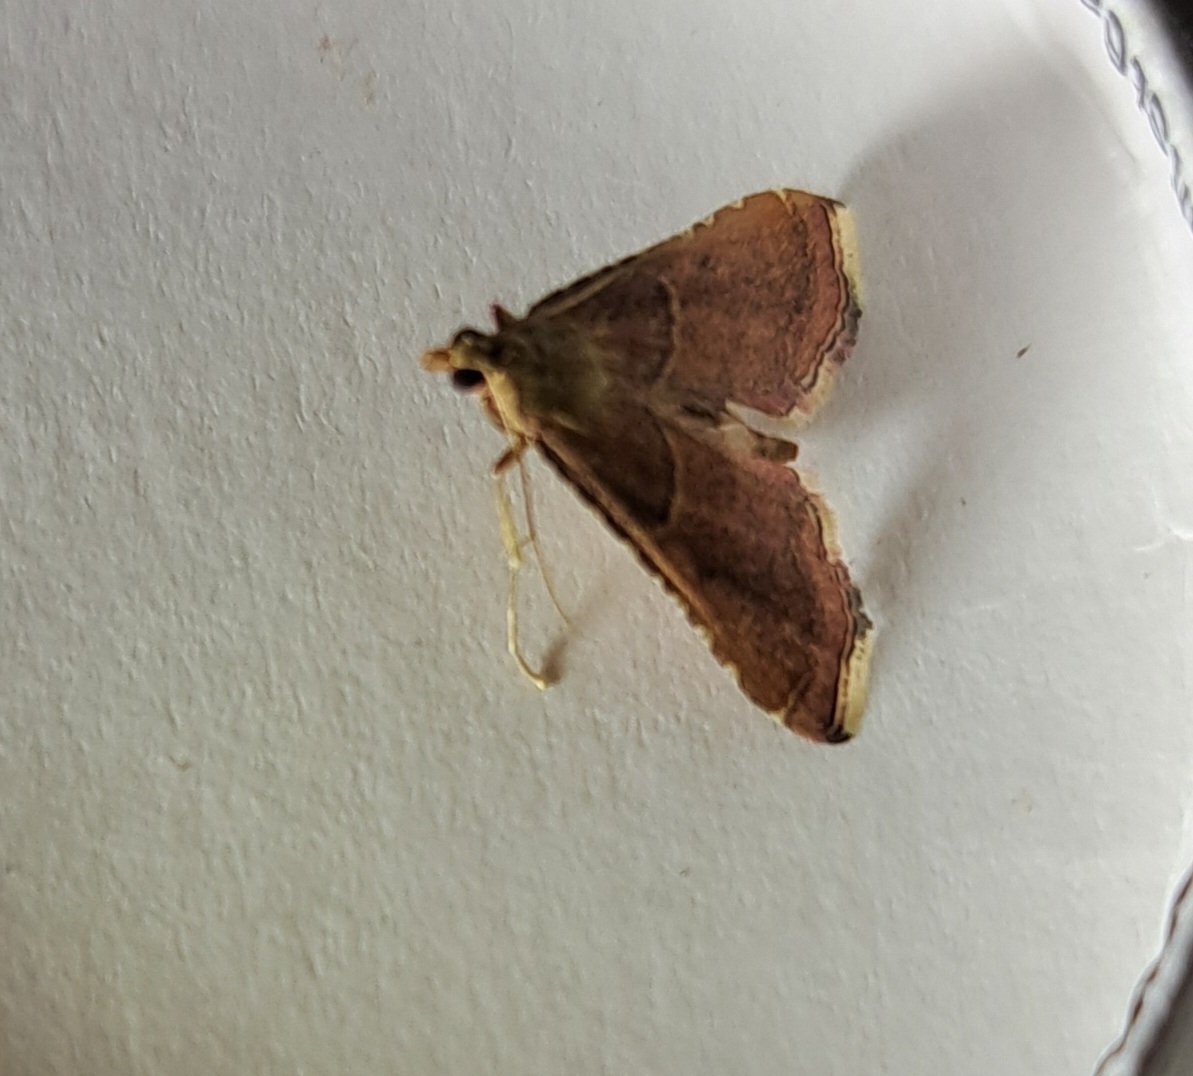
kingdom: Animalia
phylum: Arthropoda
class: Insecta
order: Lepidoptera
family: Pyralidae
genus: Endotricha
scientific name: Endotricha flammealis
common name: Rosy tabby
